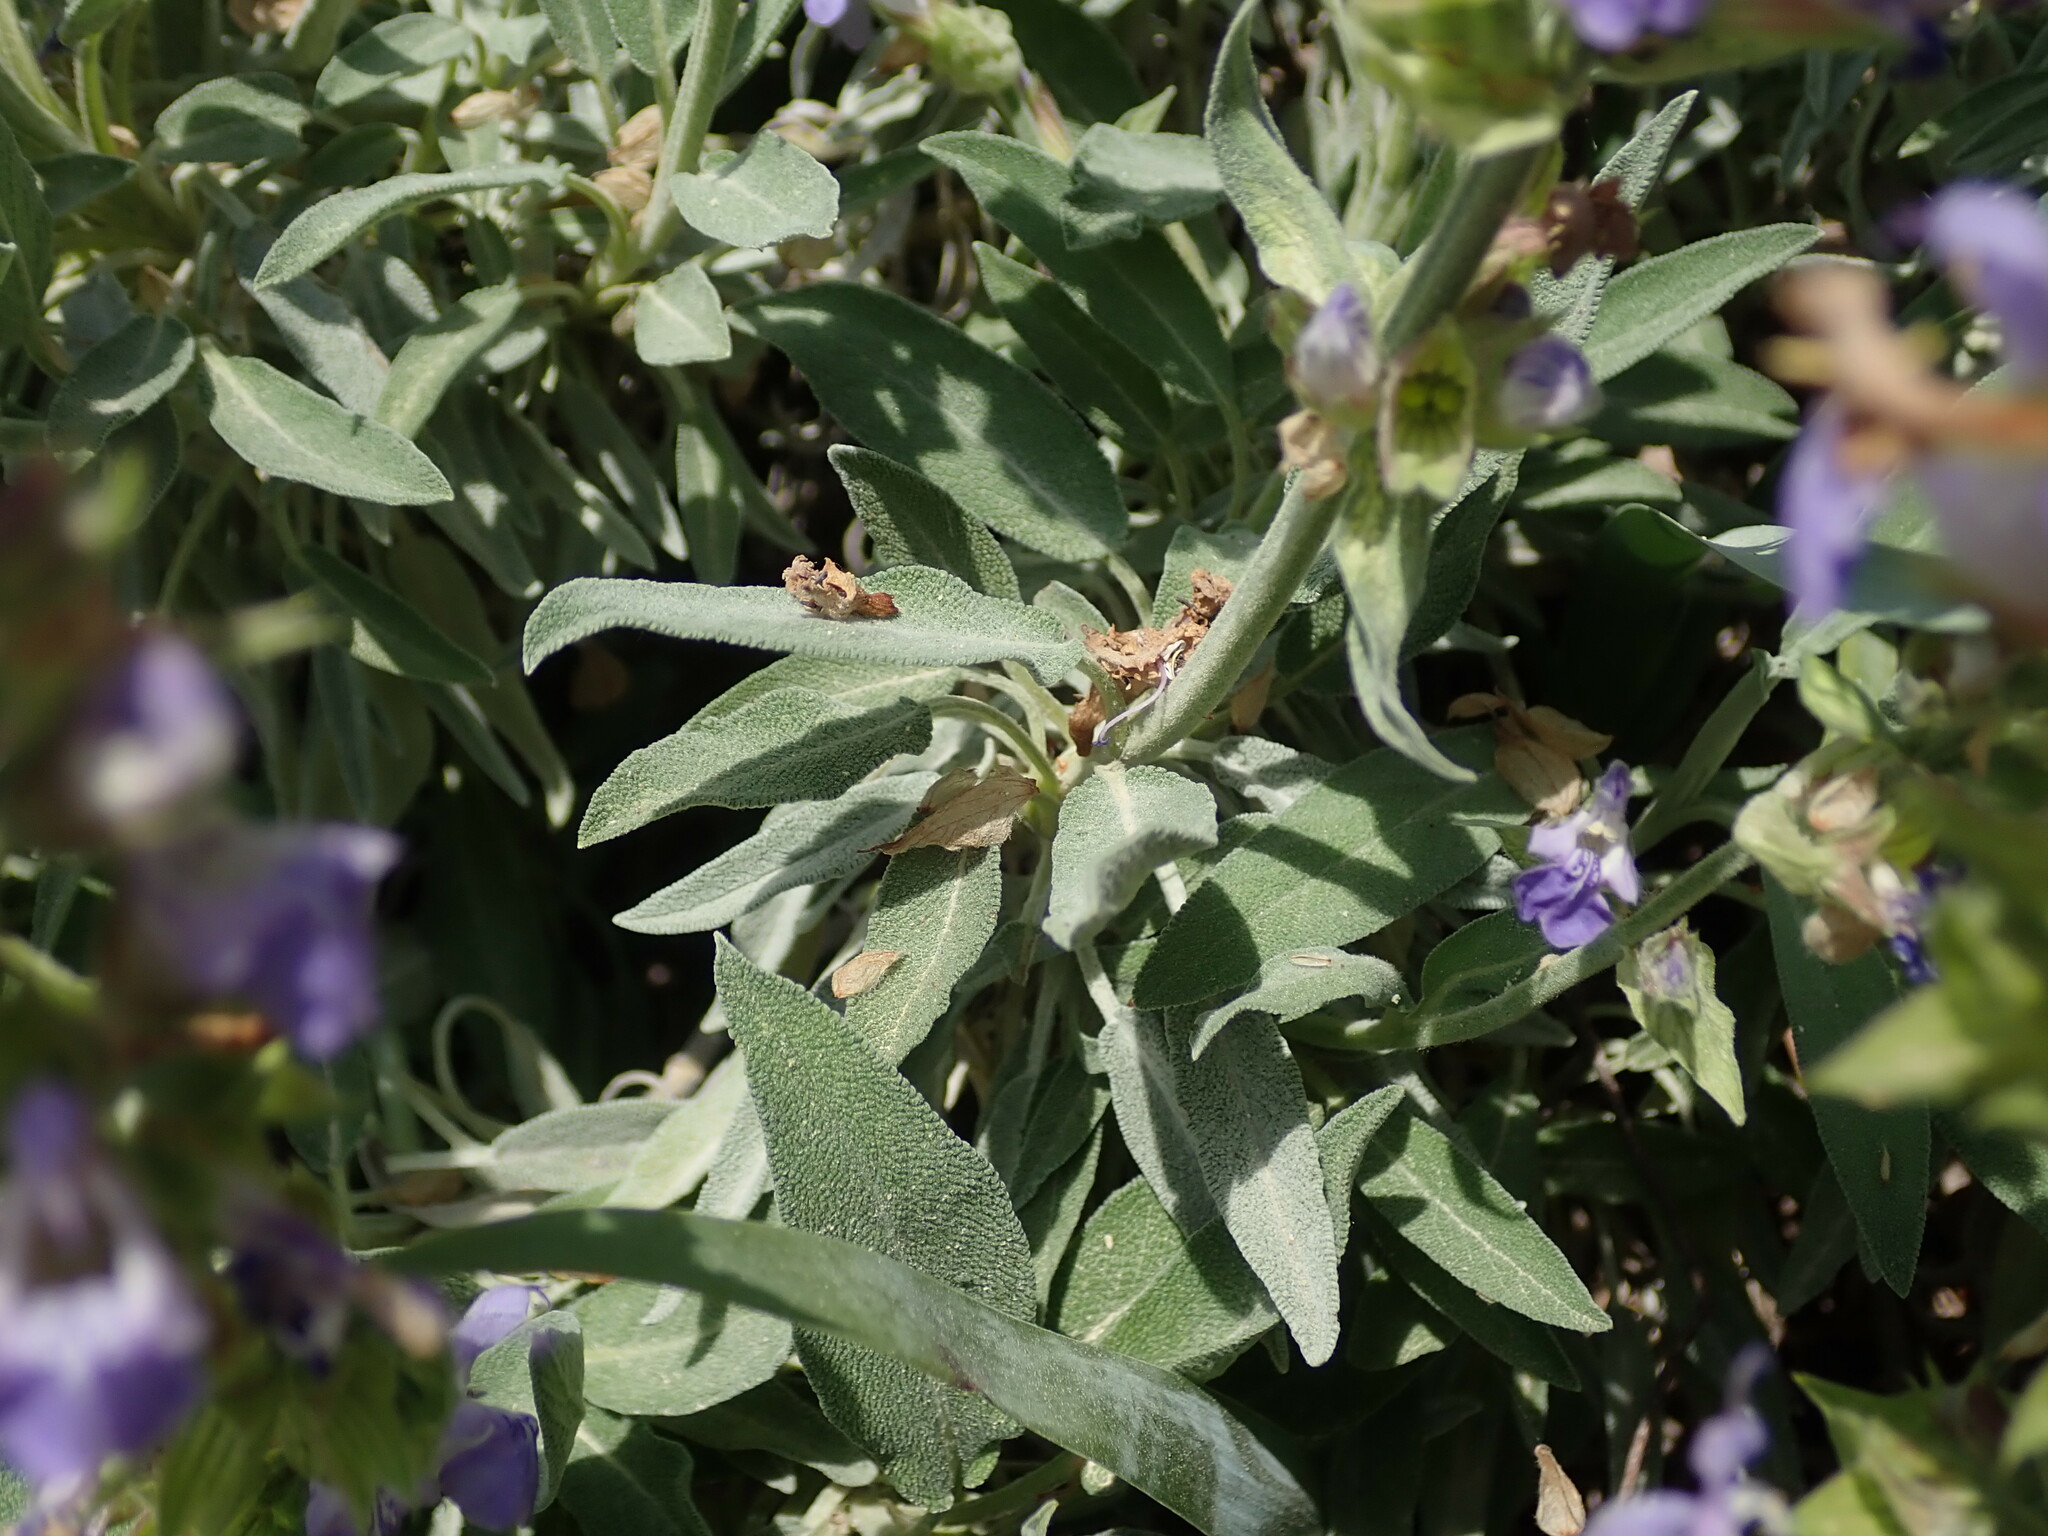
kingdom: Plantae
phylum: Tracheophyta
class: Magnoliopsida
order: Lamiales
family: Lamiaceae
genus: Salvia
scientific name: Salvia officinalis
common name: Sage
